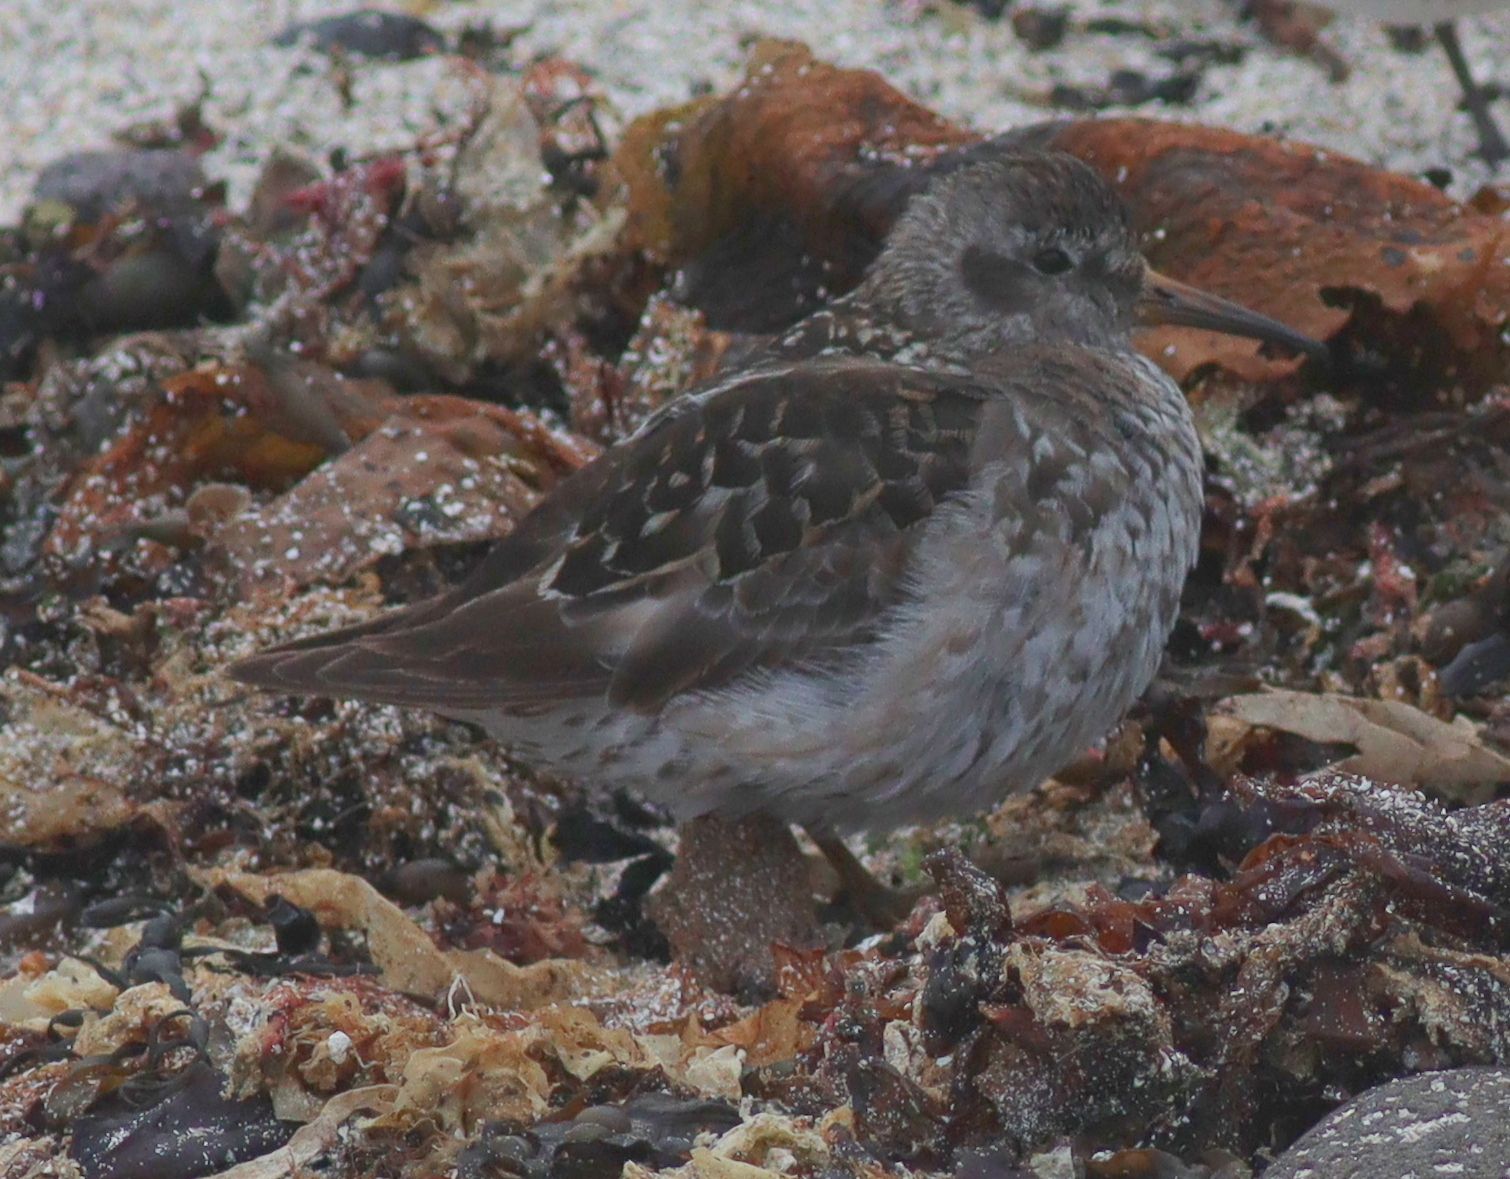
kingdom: Animalia
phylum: Chordata
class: Aves
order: Charadriiformes
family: Scolopacidae
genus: Calidris
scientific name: Calidris maritima
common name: Purple sandpiper
